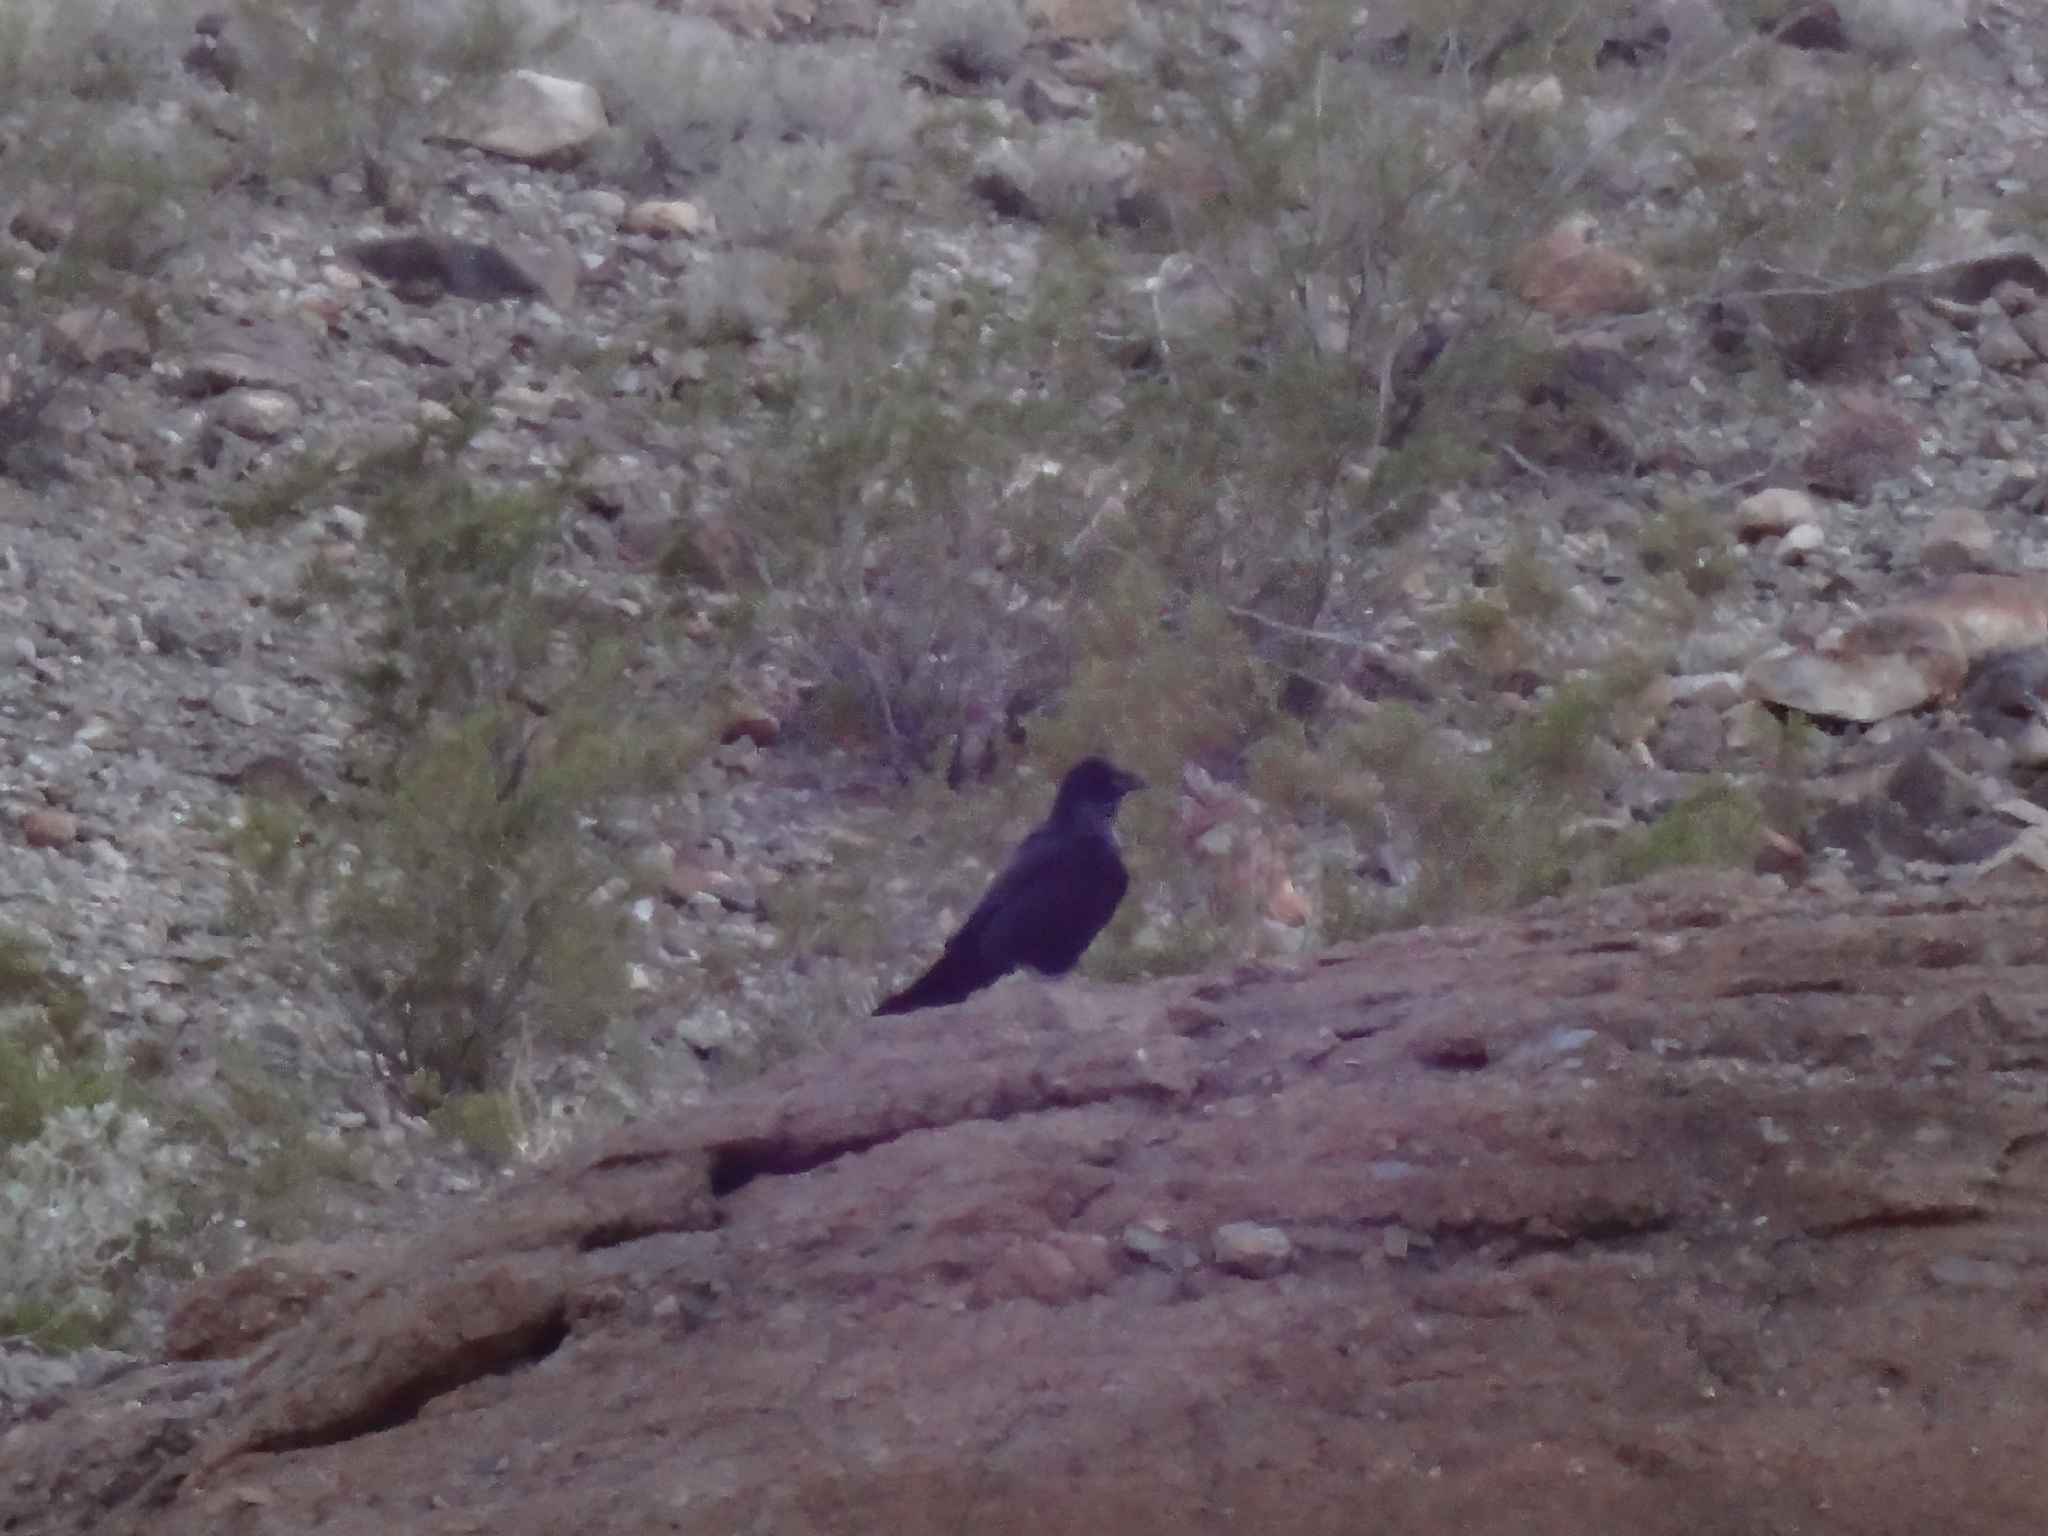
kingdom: Animalia
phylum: Chordata
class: Aves
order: Passeriformes
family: Corvidae
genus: Corvus
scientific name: Corvus corax
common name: Common raven
